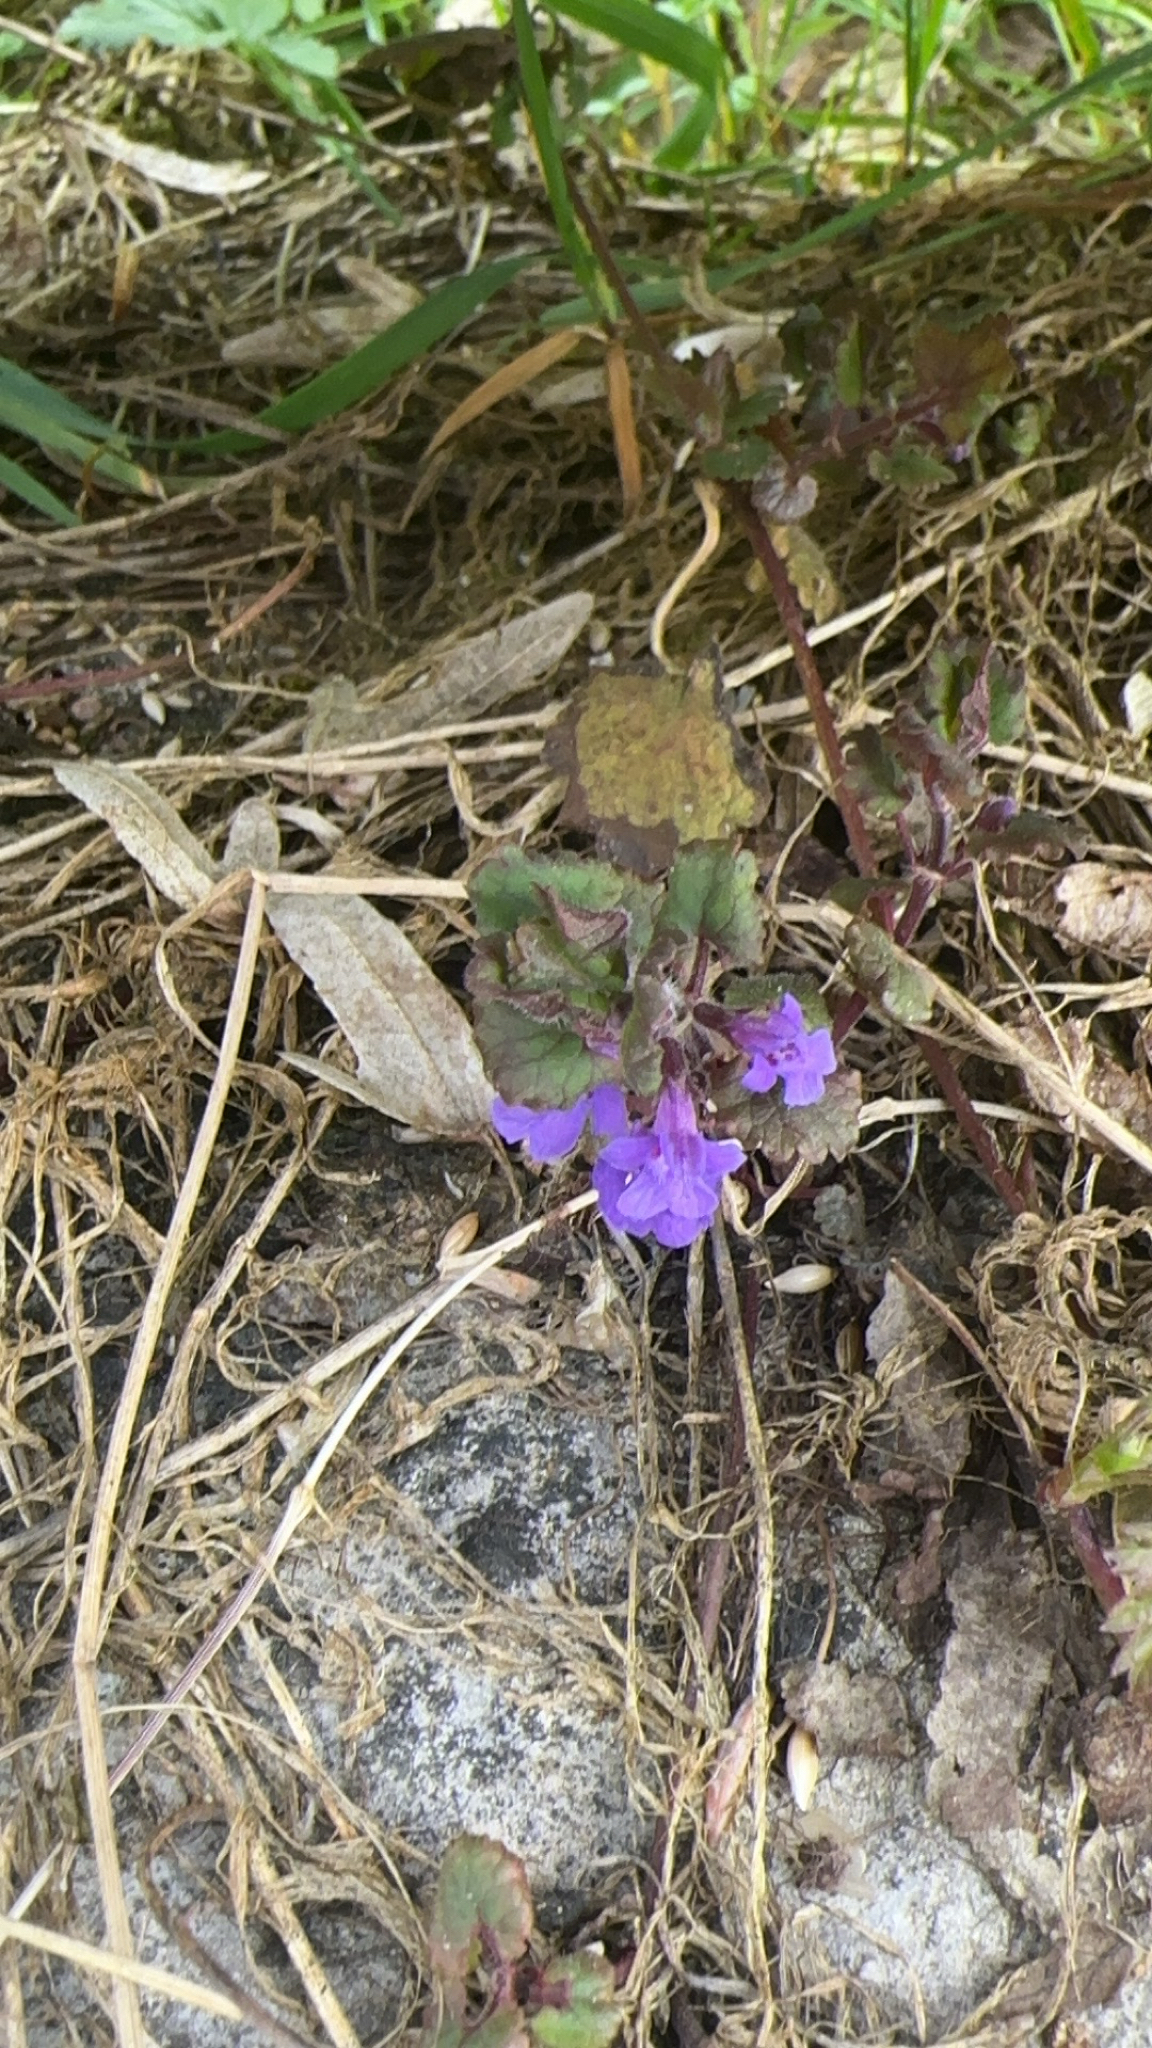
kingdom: Plantae
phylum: Tracheophyta
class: Magnoliopsida
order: Lamiales
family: Lamiaceae
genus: Glechoma
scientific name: Glechoma hederacea
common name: Ground ivy
